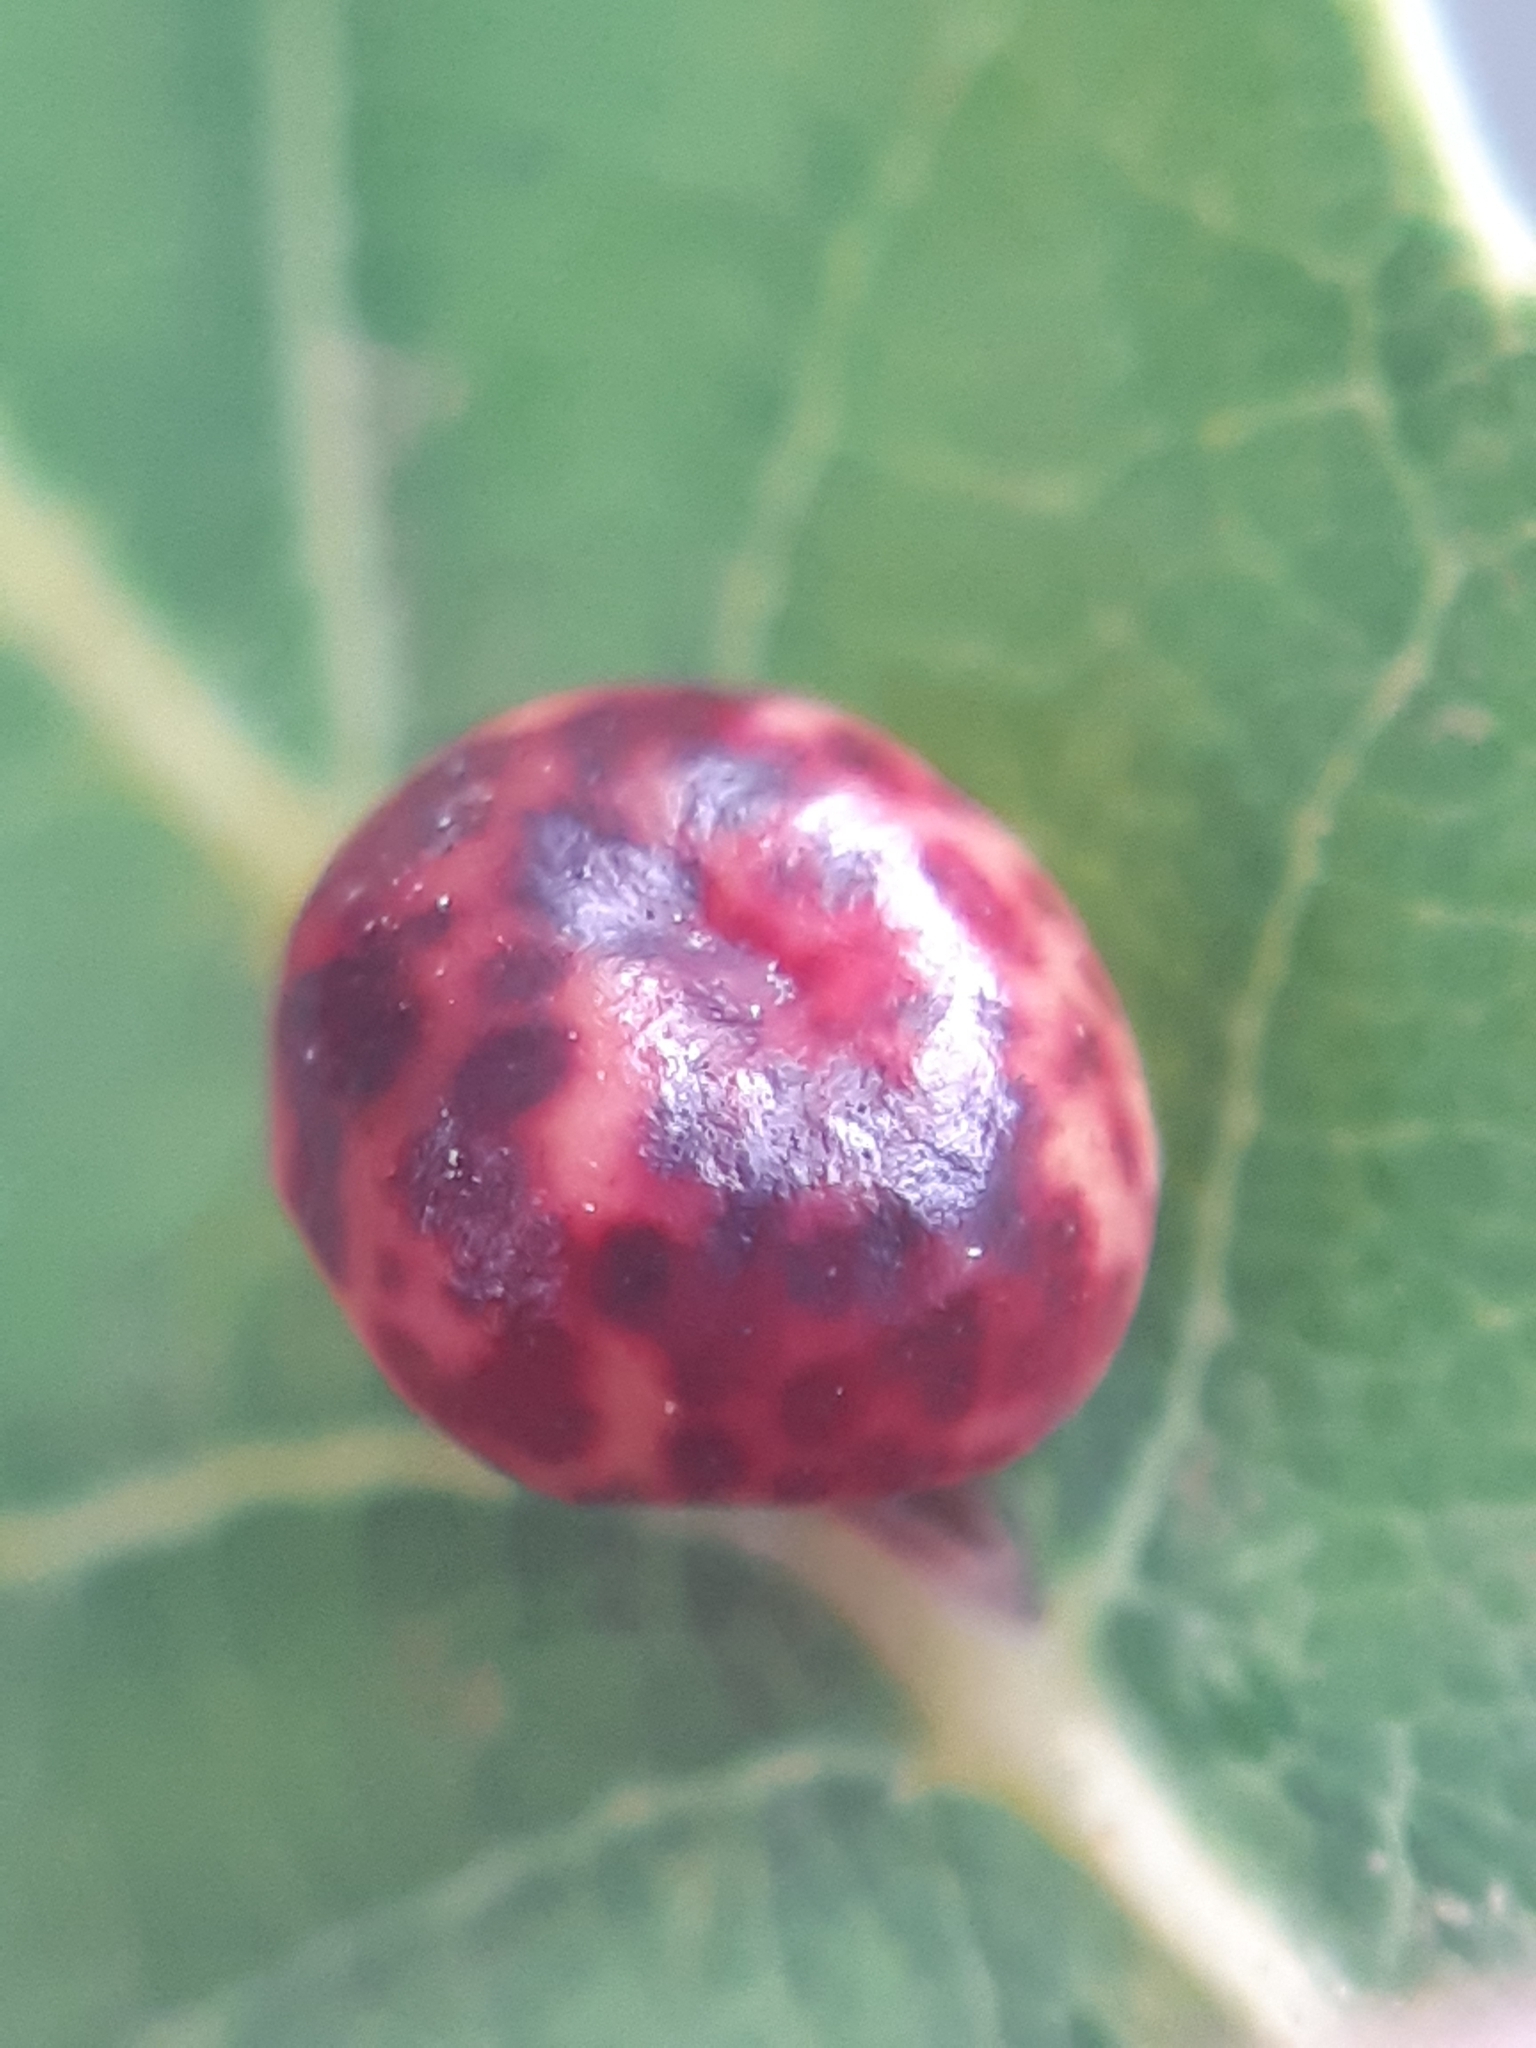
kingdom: Animalia
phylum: Arthropoda
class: Insecta
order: Hymenoptera
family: Cynipidae
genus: Neuroterus
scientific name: Neuroterus anthracinus
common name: Oyster gall
